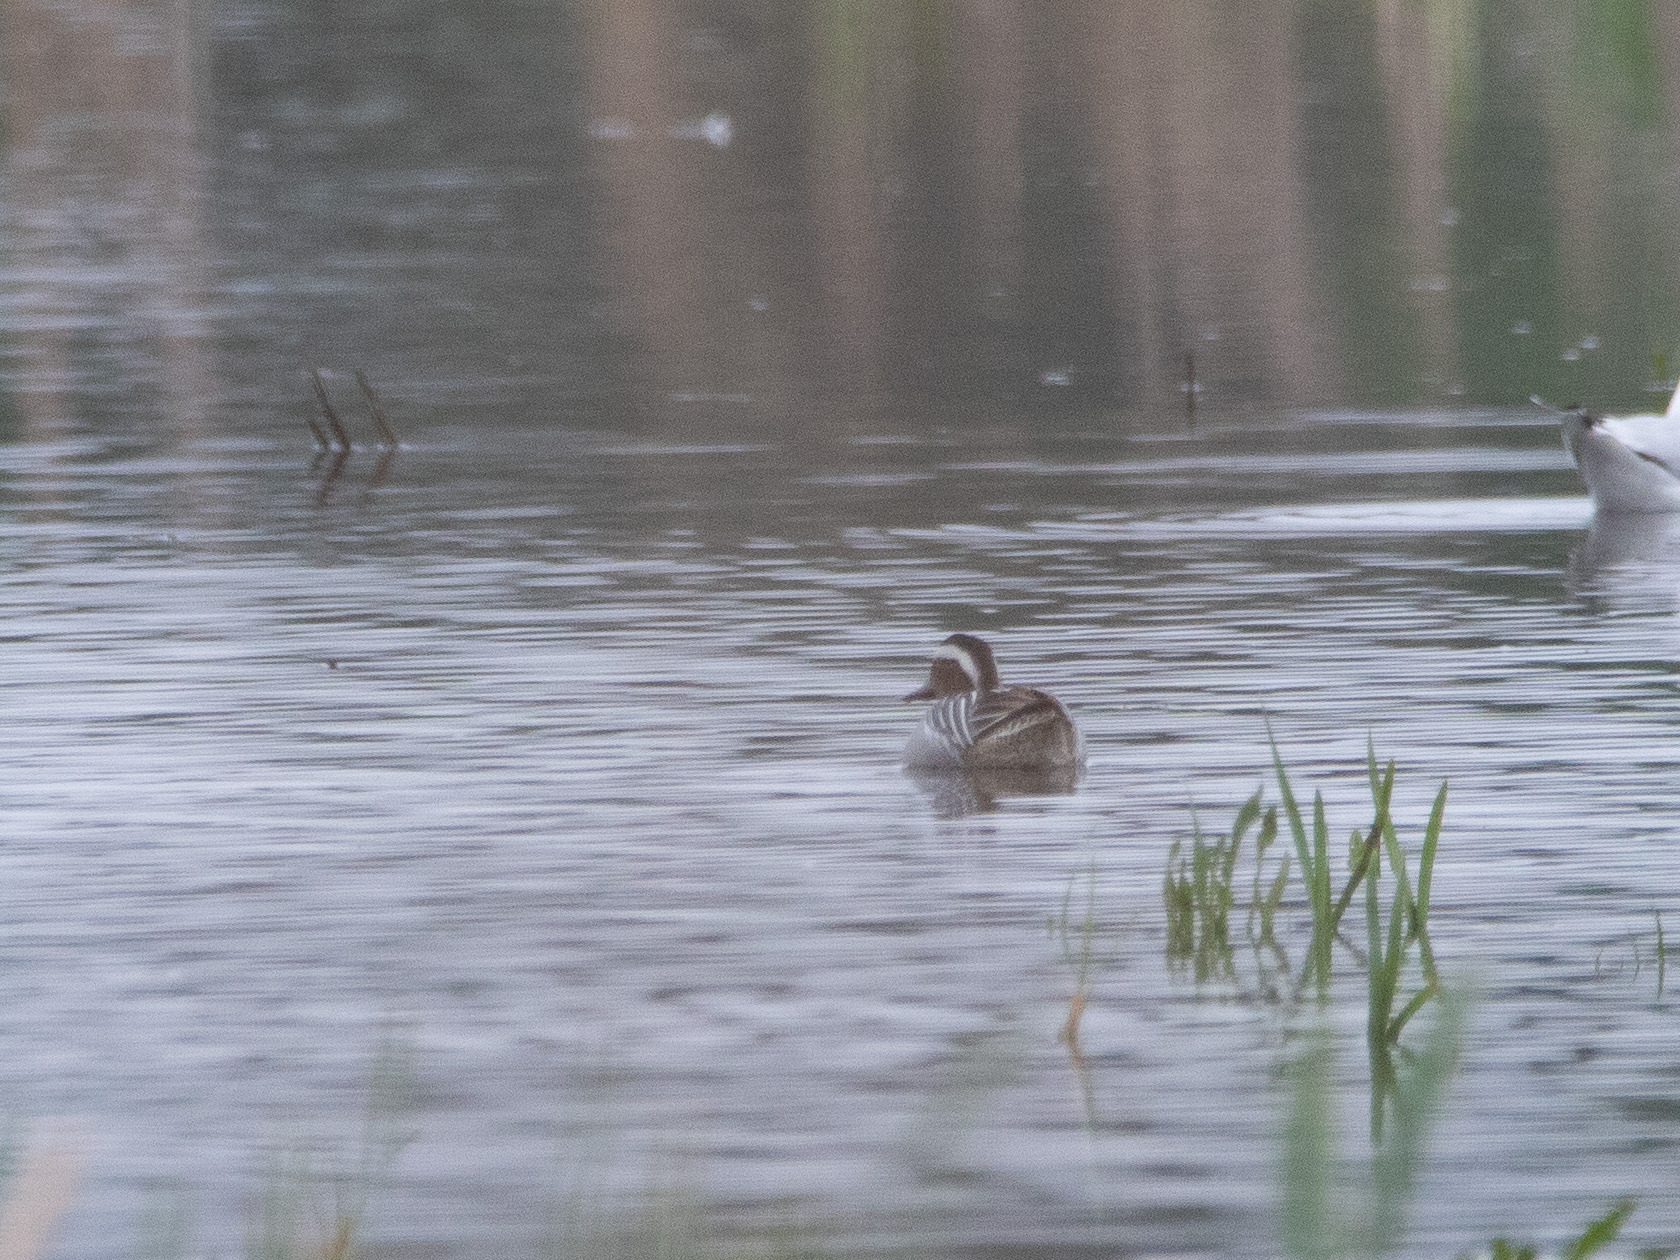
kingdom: Animalia
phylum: Chordata
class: Aves
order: Anseriformes
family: Anatidae
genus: Spatula
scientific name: Spatula querquedula
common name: Garganey
